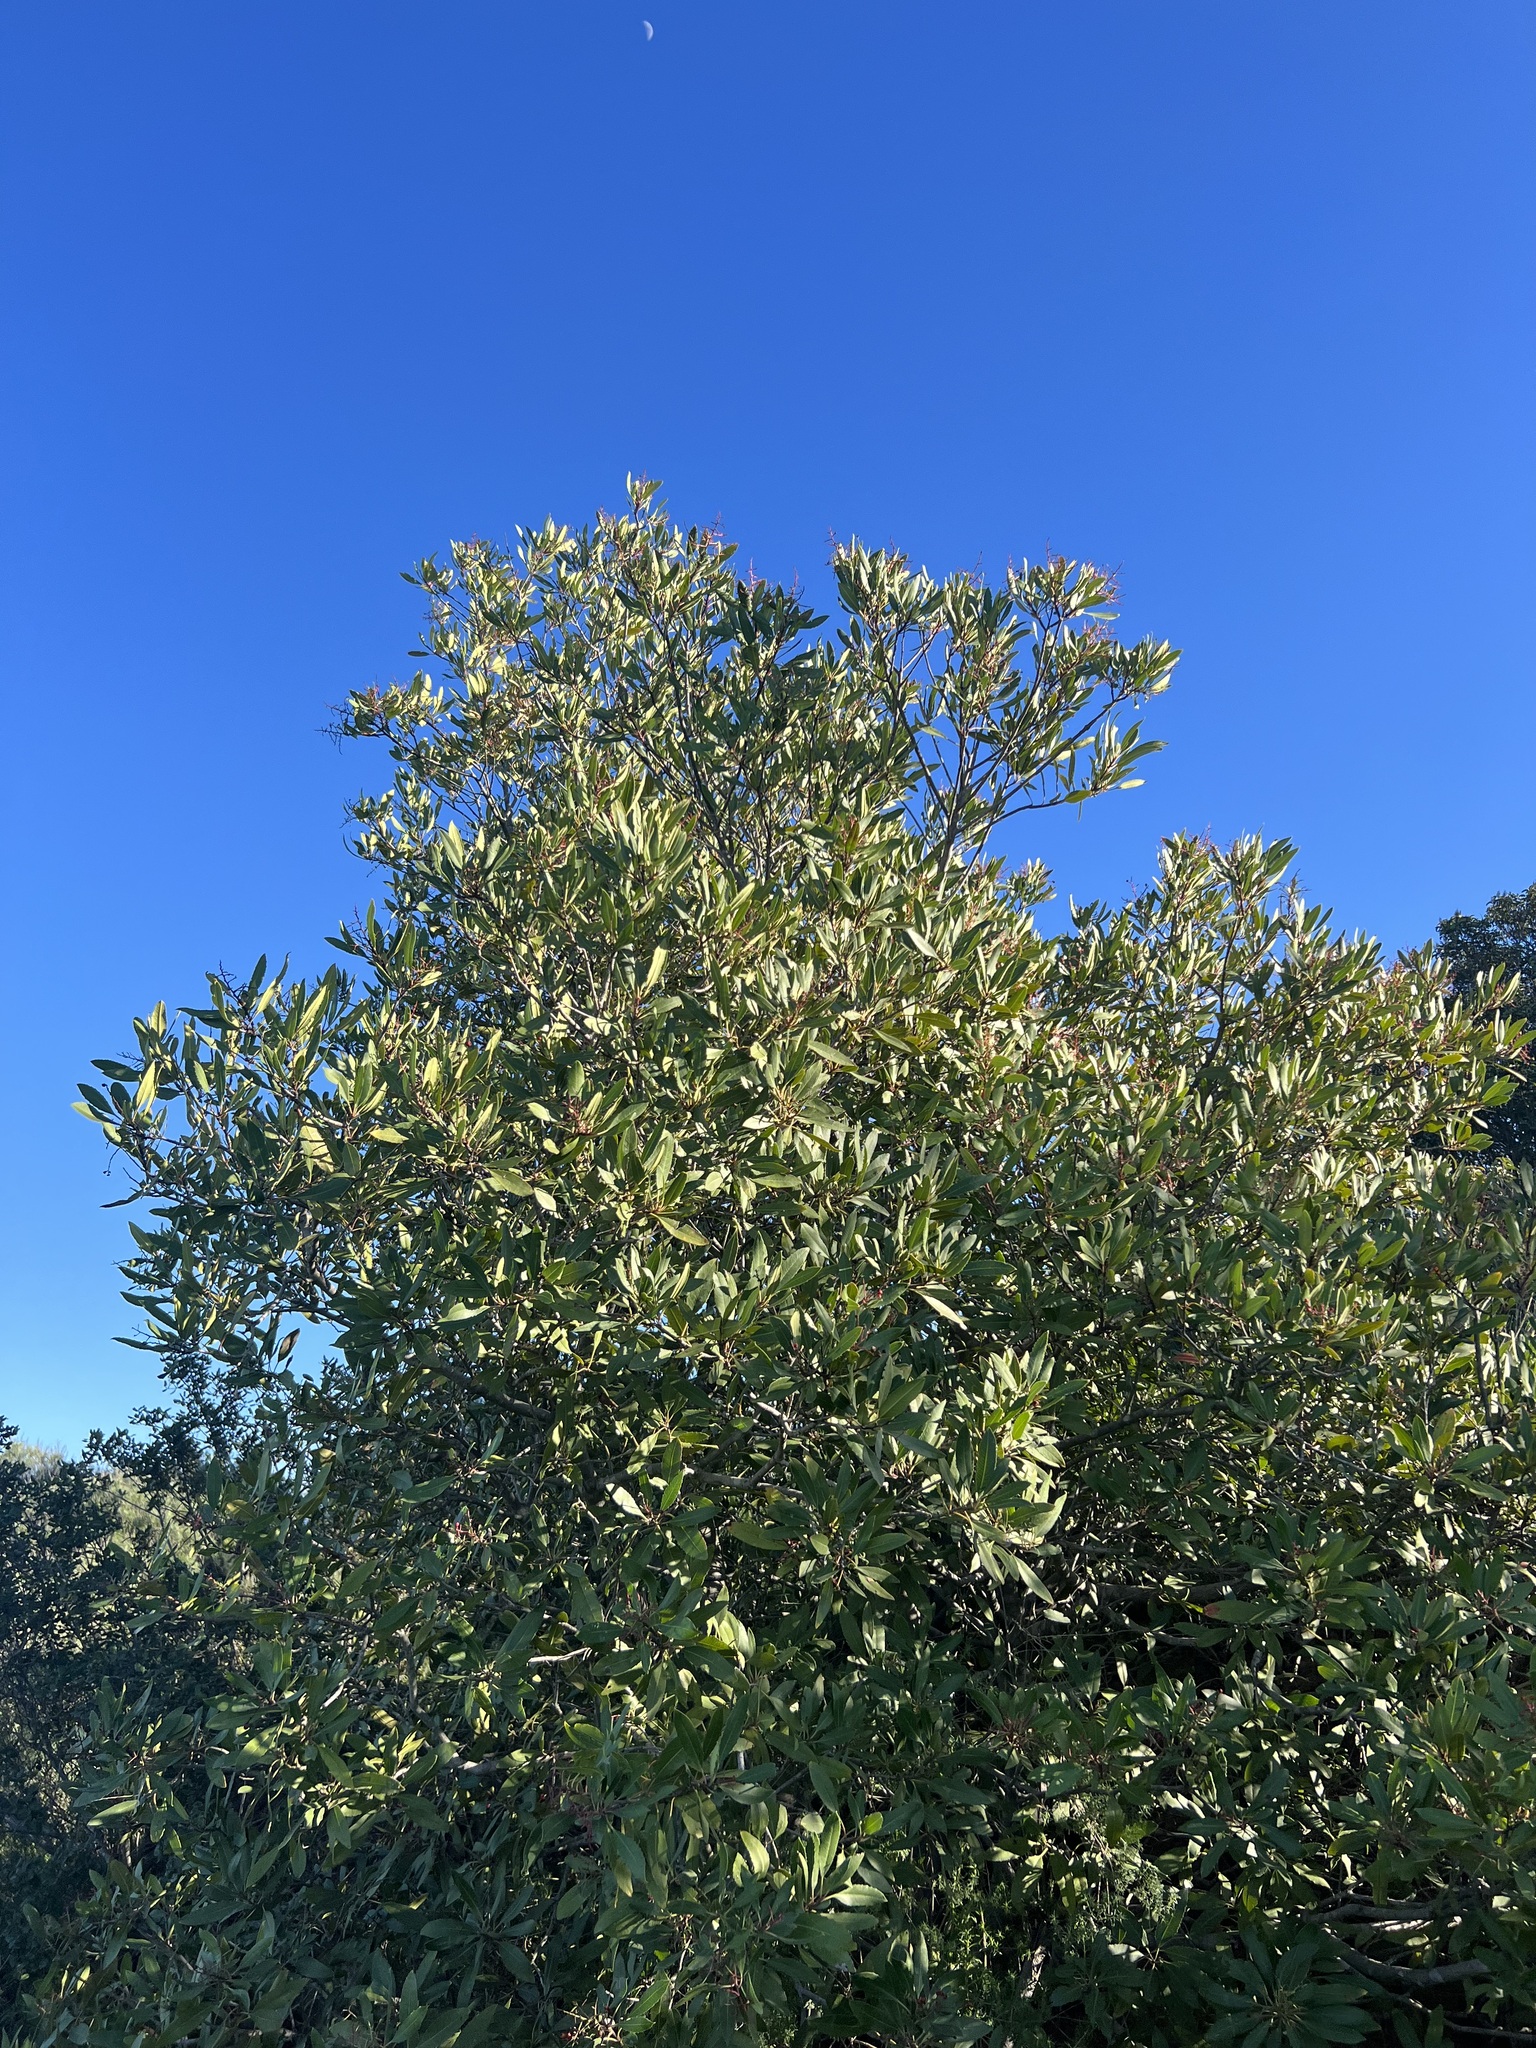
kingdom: Plantae
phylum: Tracheophyta
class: Magnoliopsida
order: Rosales
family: Rosaceae
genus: Heteromeles
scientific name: Heteromeles arbutifolia
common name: California-holly
